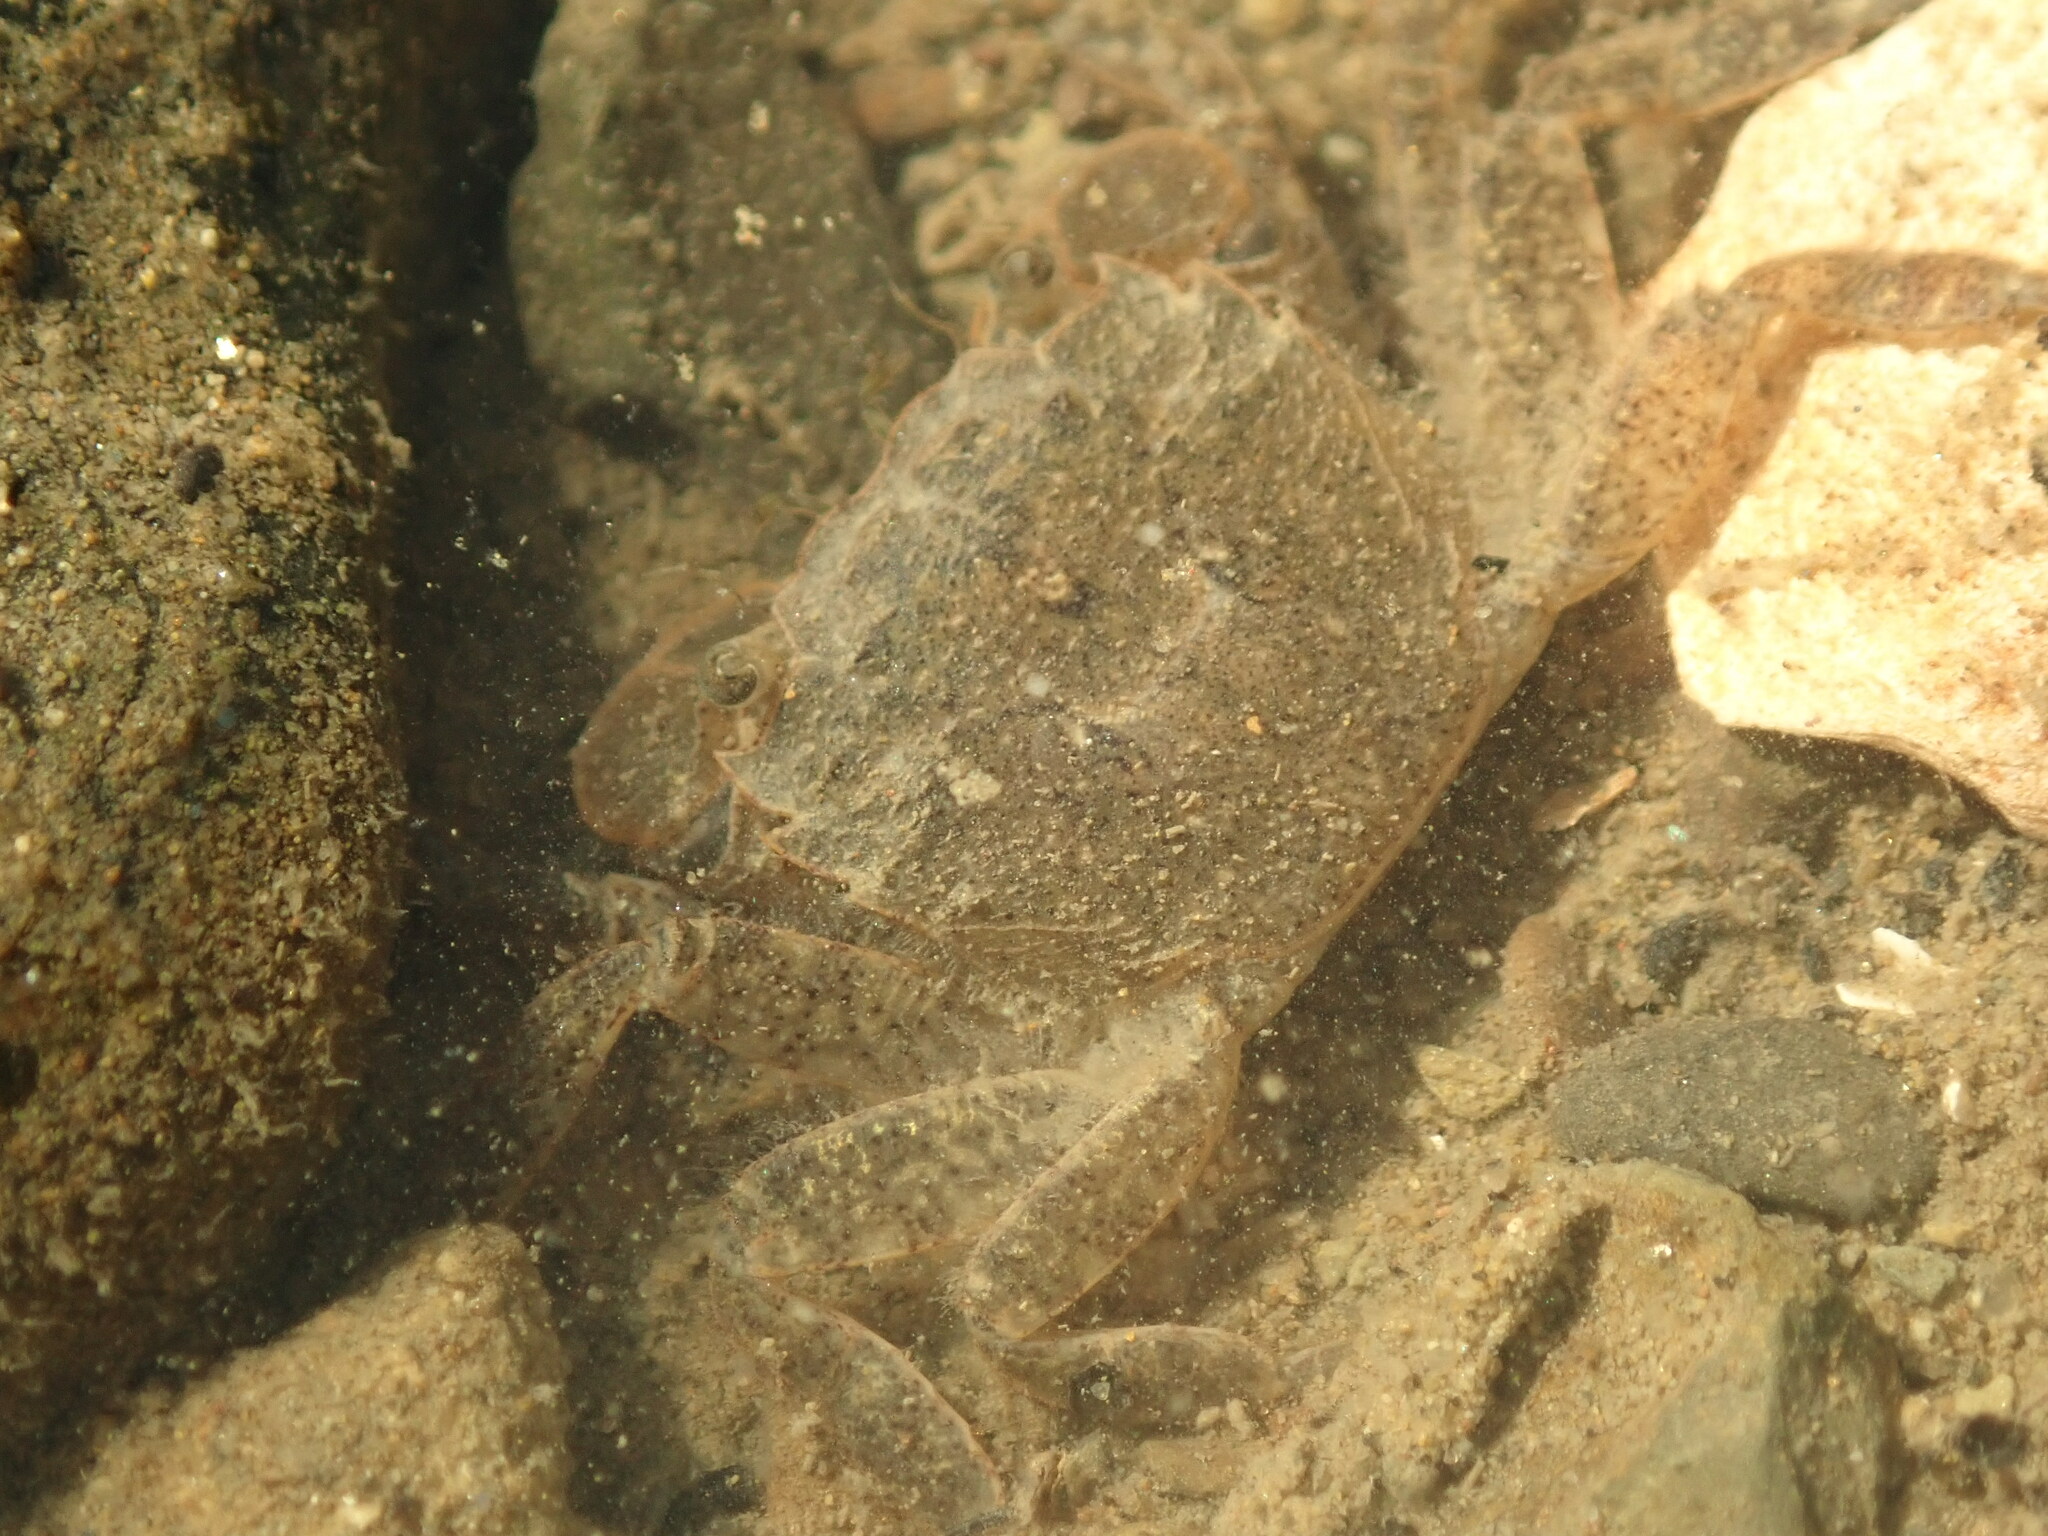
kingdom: Animalia
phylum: Arthropoda
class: Malacostraca
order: Decapoda
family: Varunidae
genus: Hemigrapsus
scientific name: Hemigrapsus oregonensis
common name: Yellow shore crab
